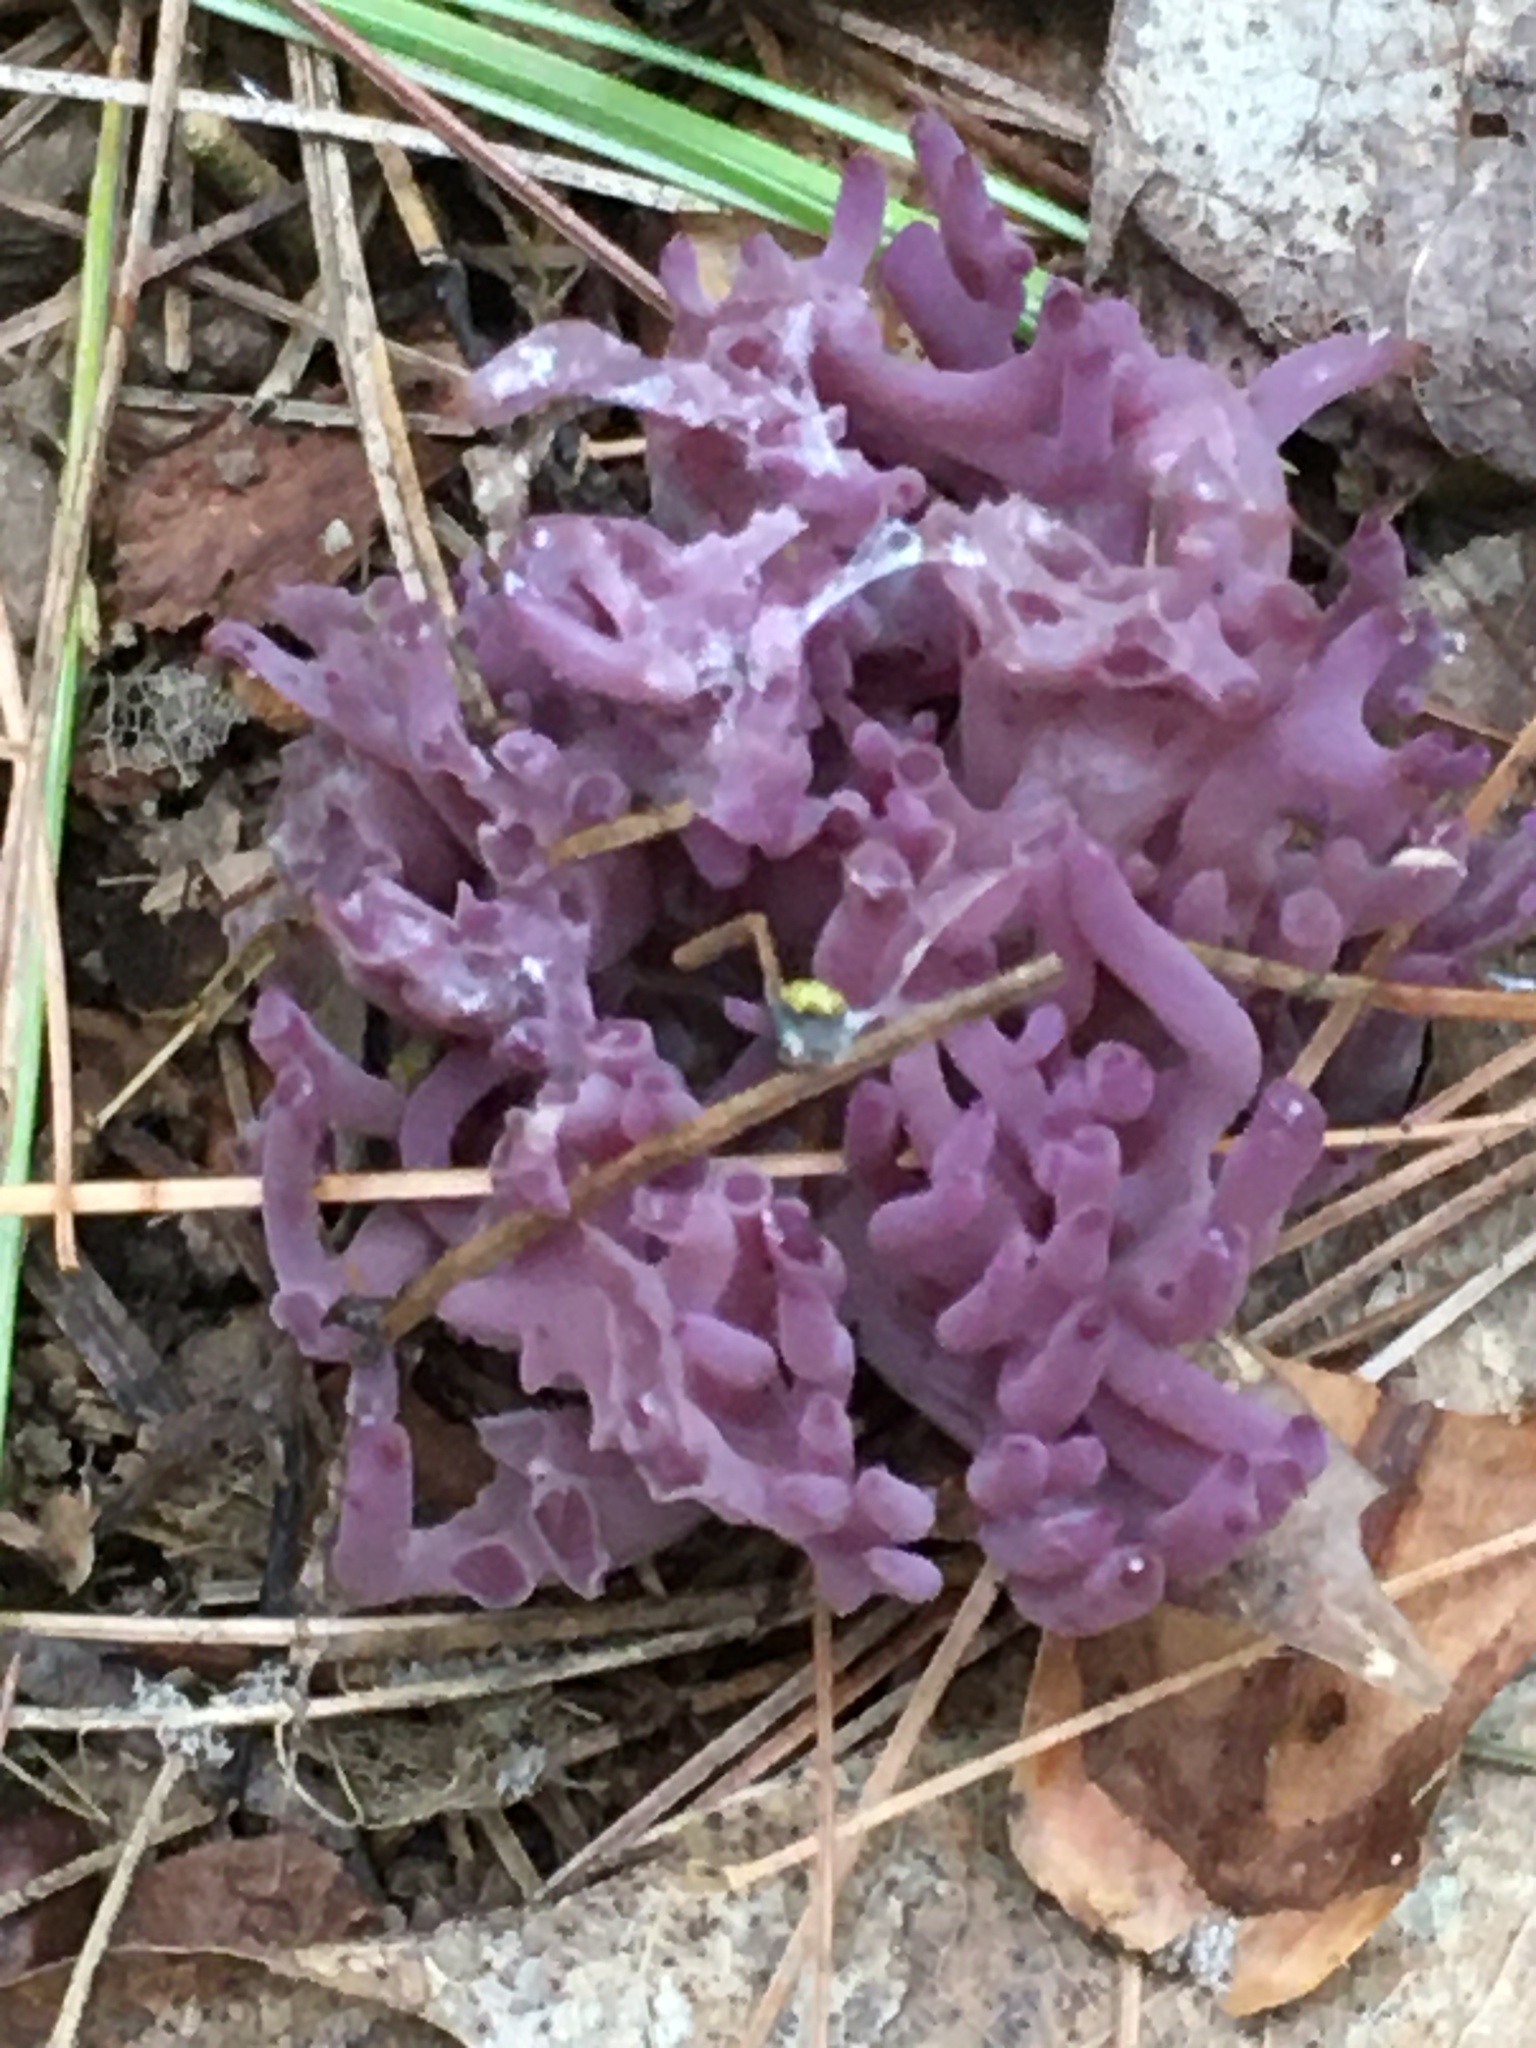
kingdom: Fungi
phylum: Basidiomycota
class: Agaricomycetes
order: Agaricales
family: Clavariaceae
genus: Clavaria
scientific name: Clavaria zollingeri
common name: Violet coral
